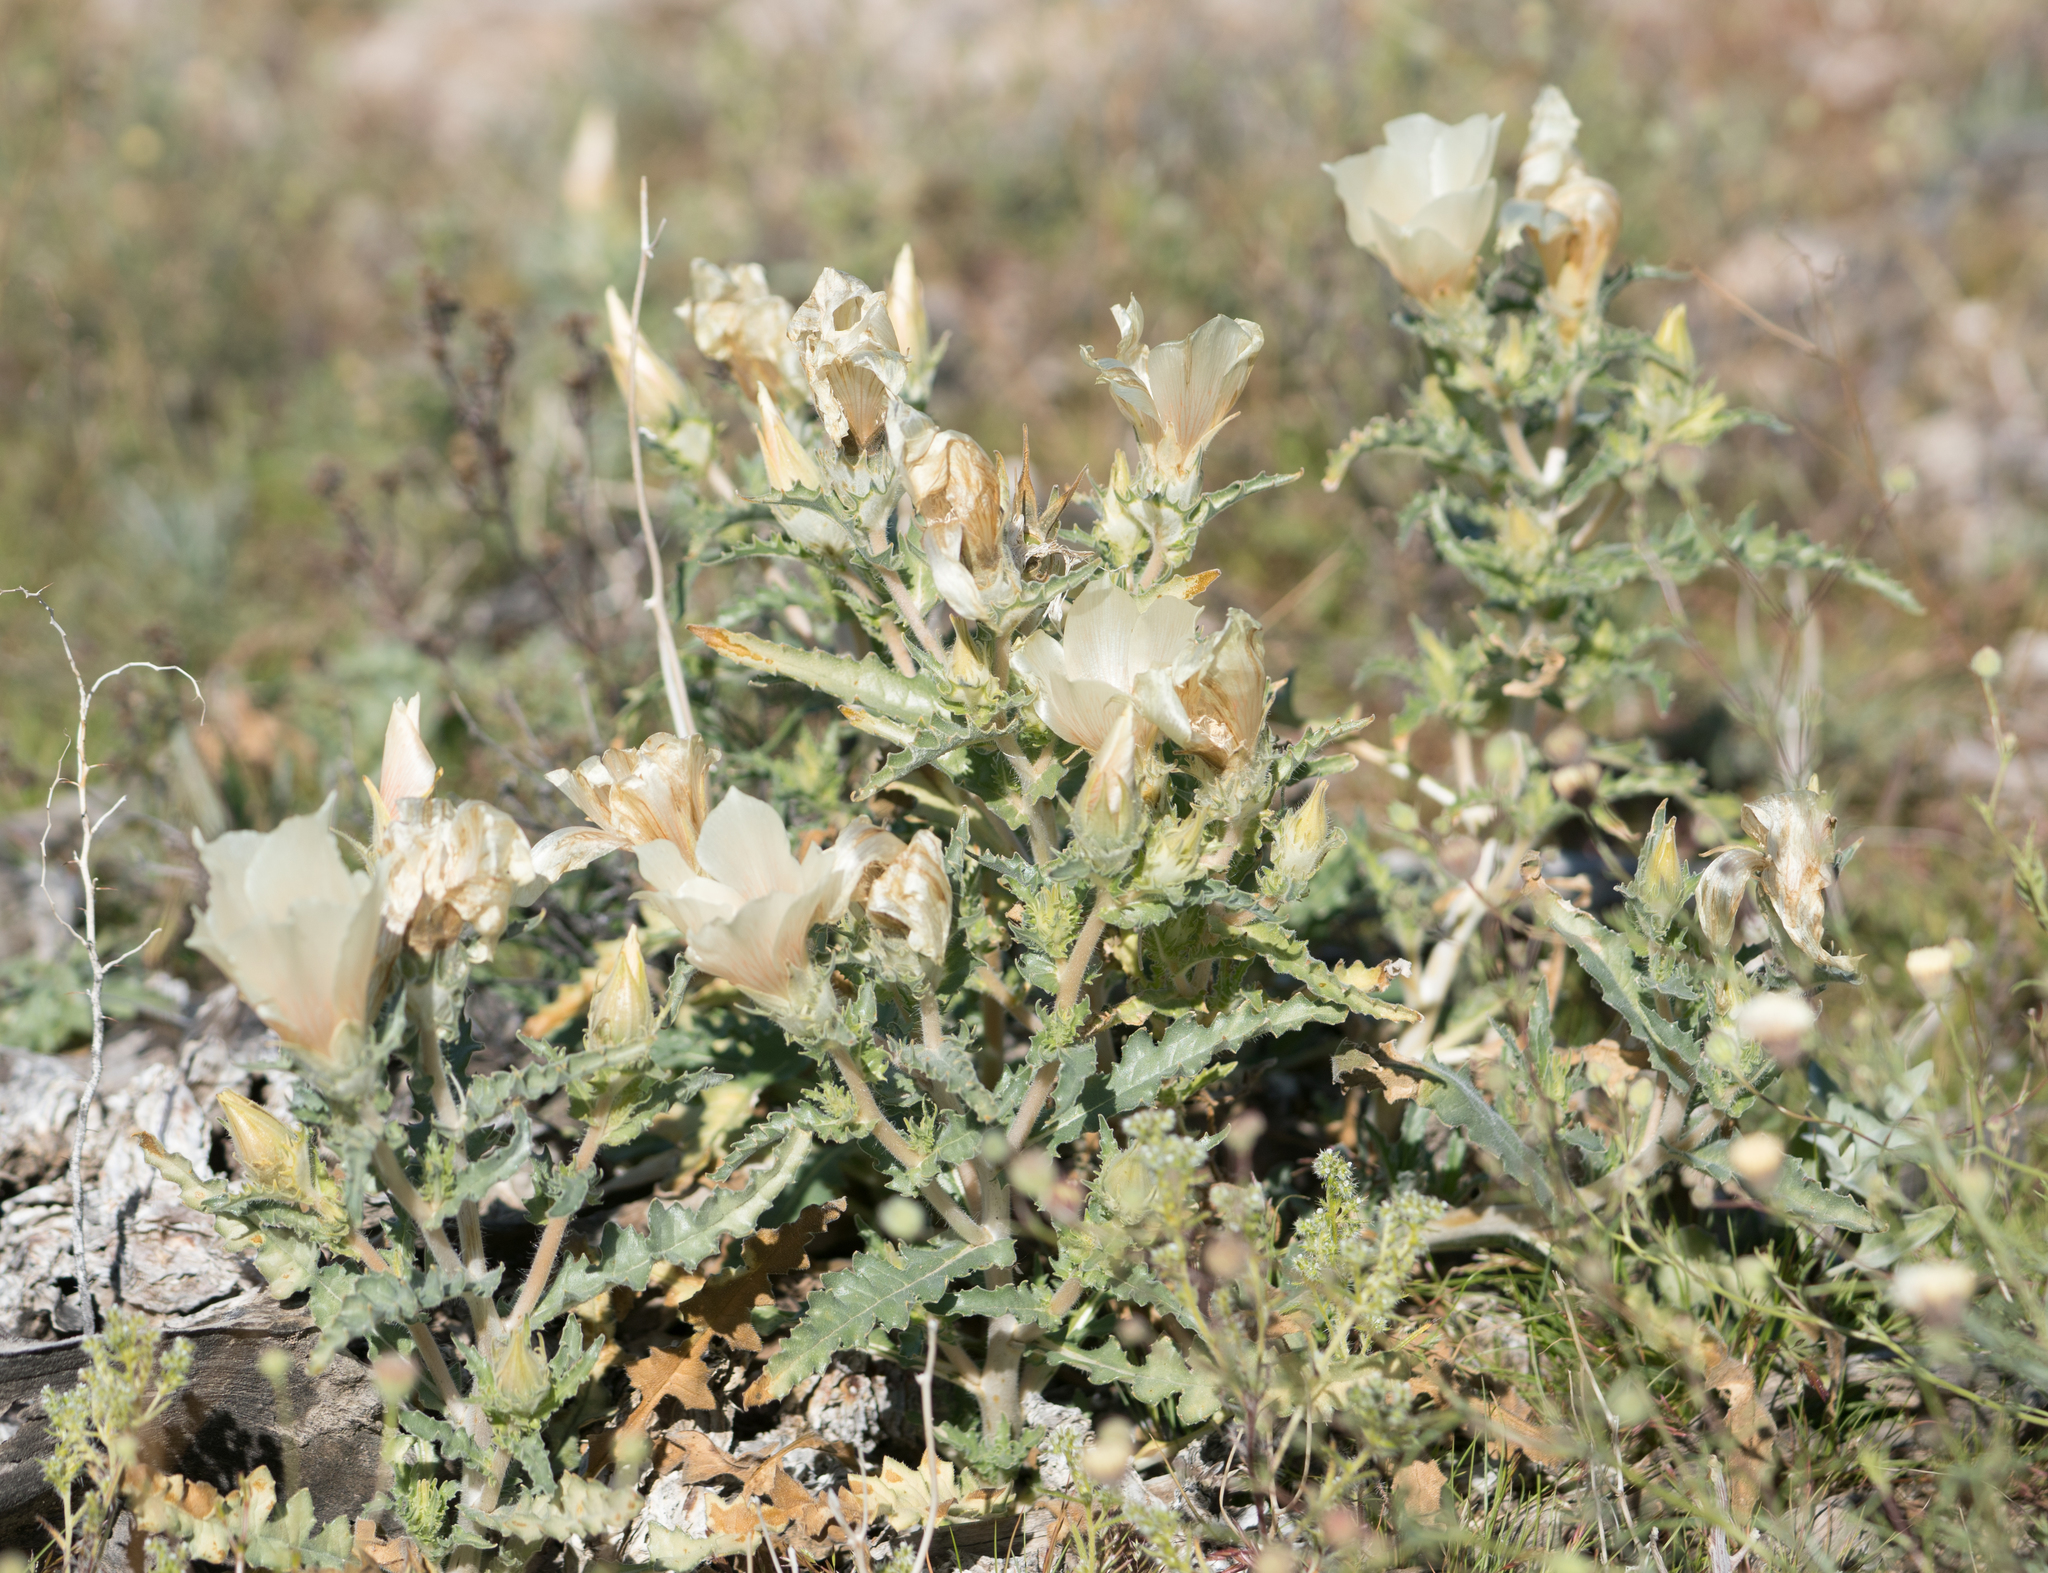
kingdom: Plantae
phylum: Tracheophyta
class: Magnoliopsida
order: Cornales
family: Loasaceae
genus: Mentzelia
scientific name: Mentzelia involucrata
